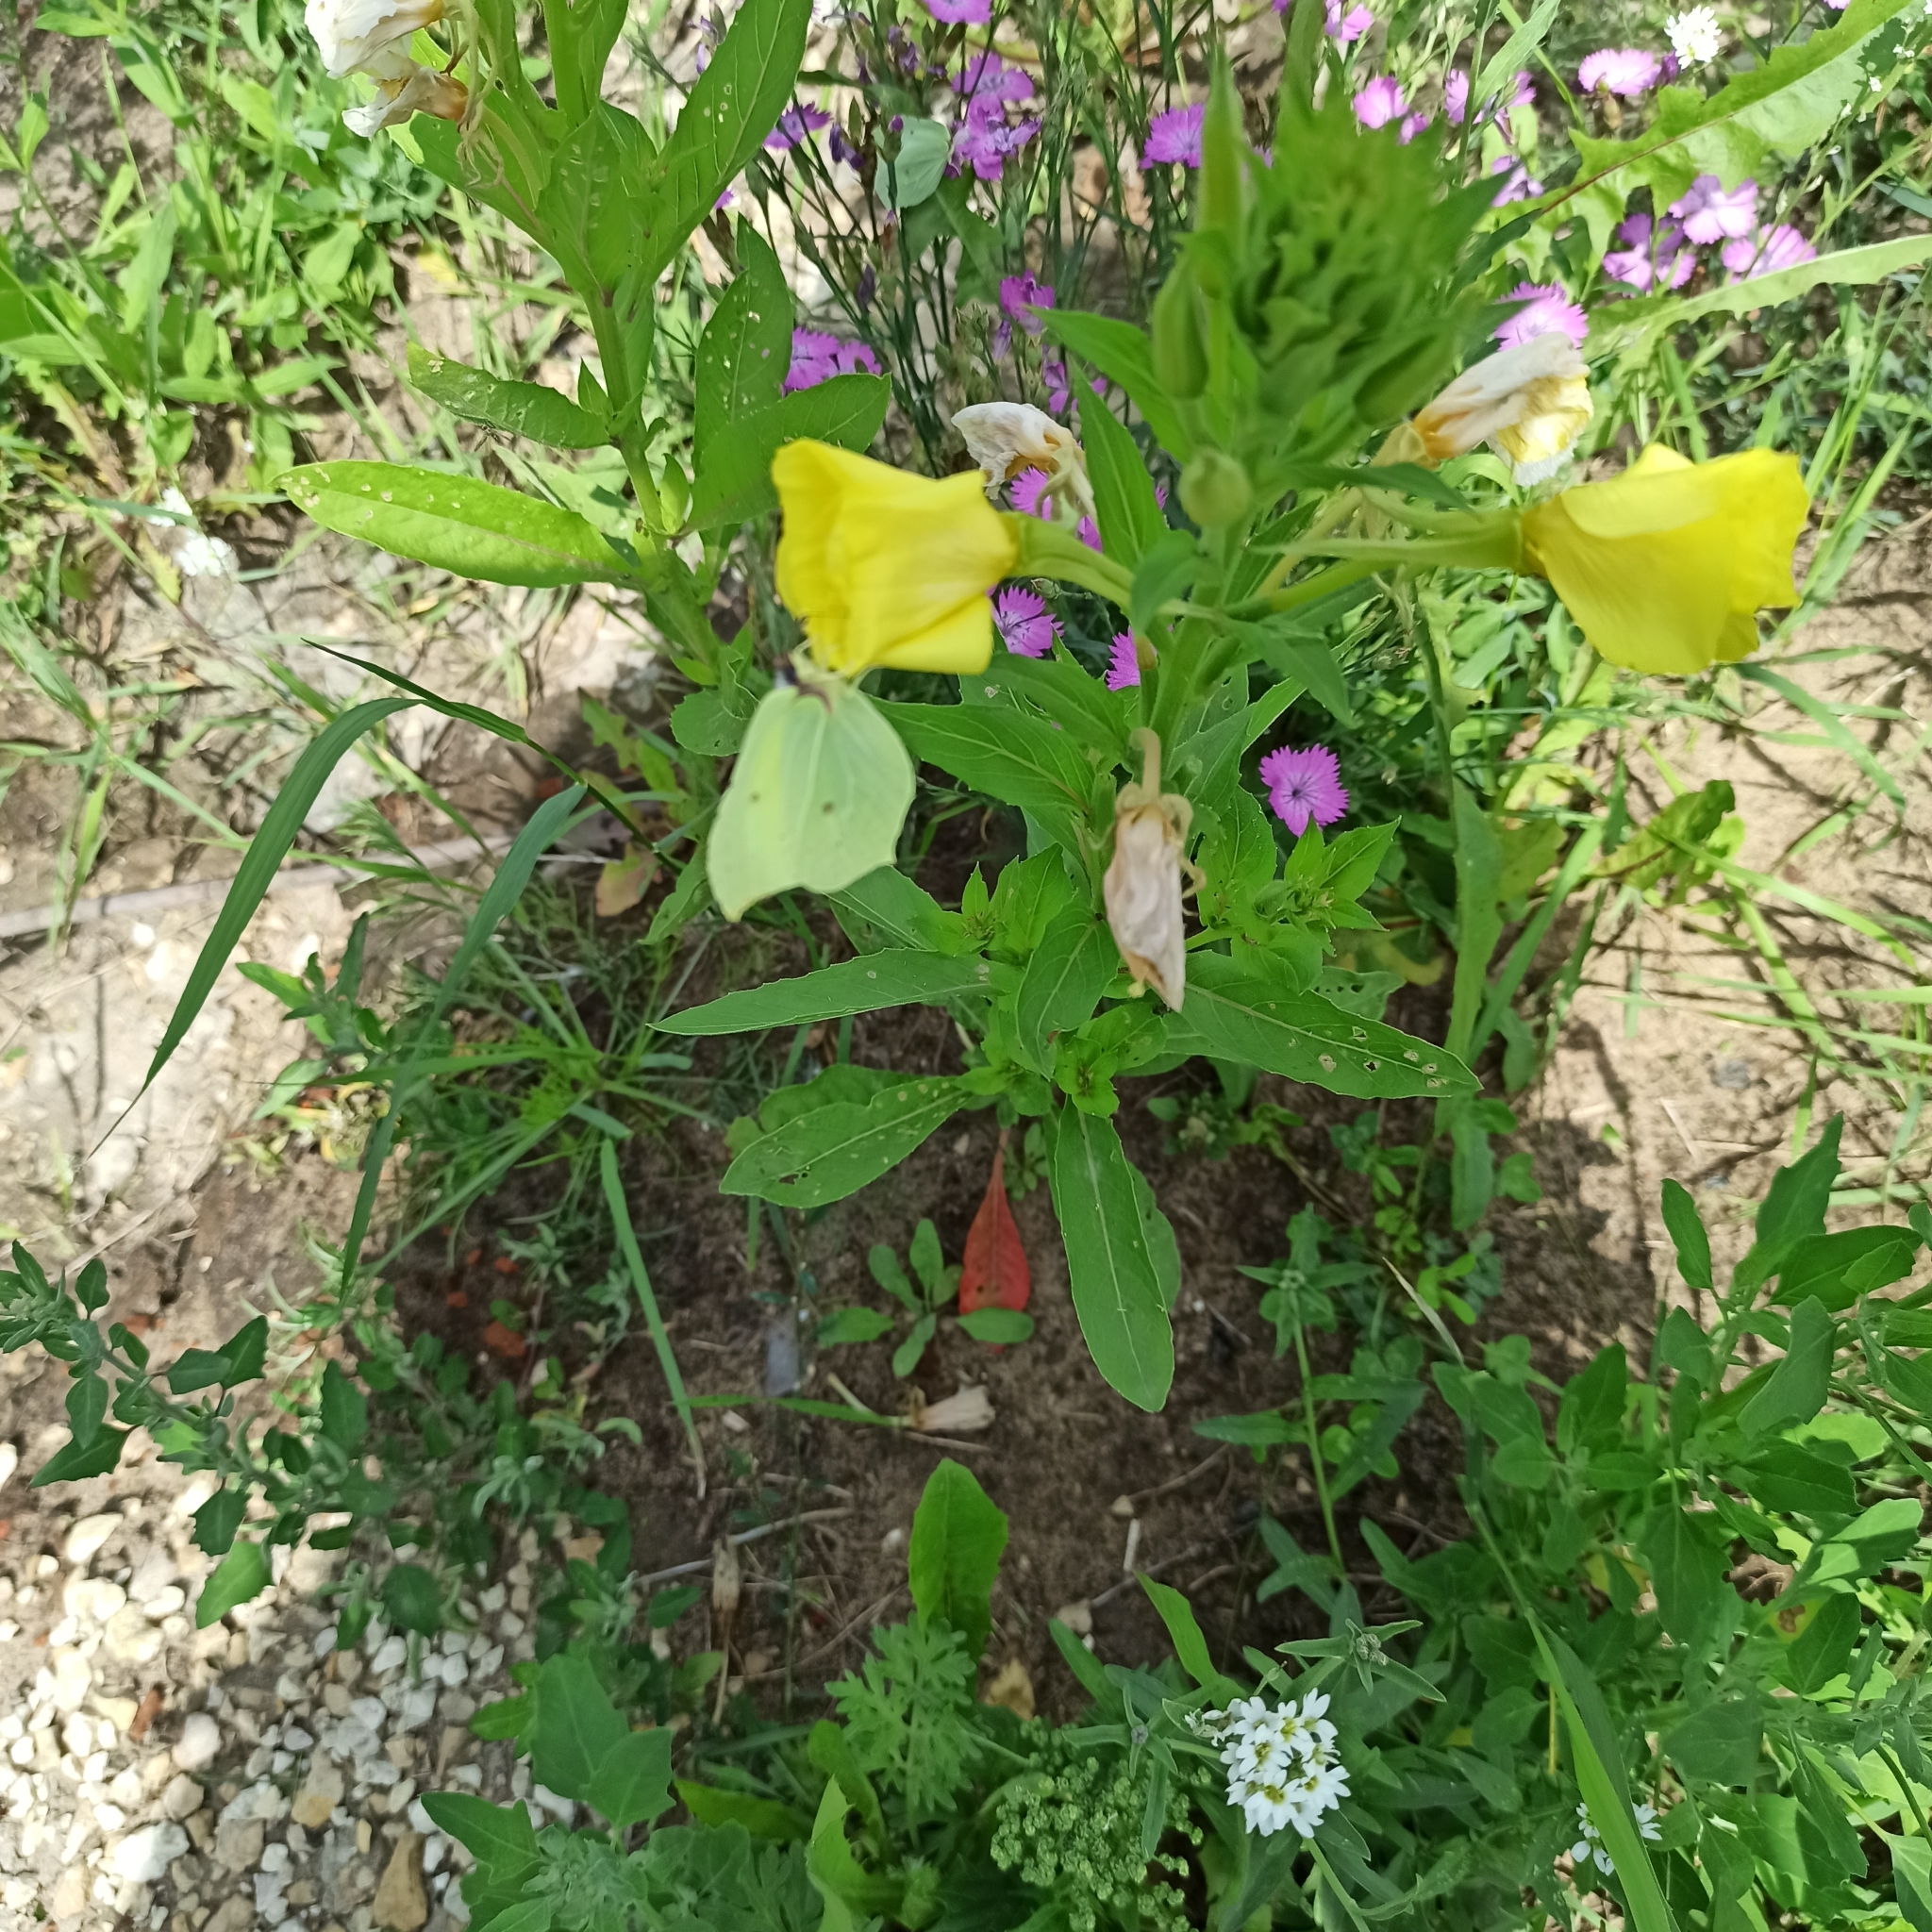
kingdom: Animalia
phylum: Arthropoda
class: Insecta
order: Lepidoptera
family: Pieridae
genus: Gonepteryx
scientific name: Gonepteryx rhamni
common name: Brimstone
